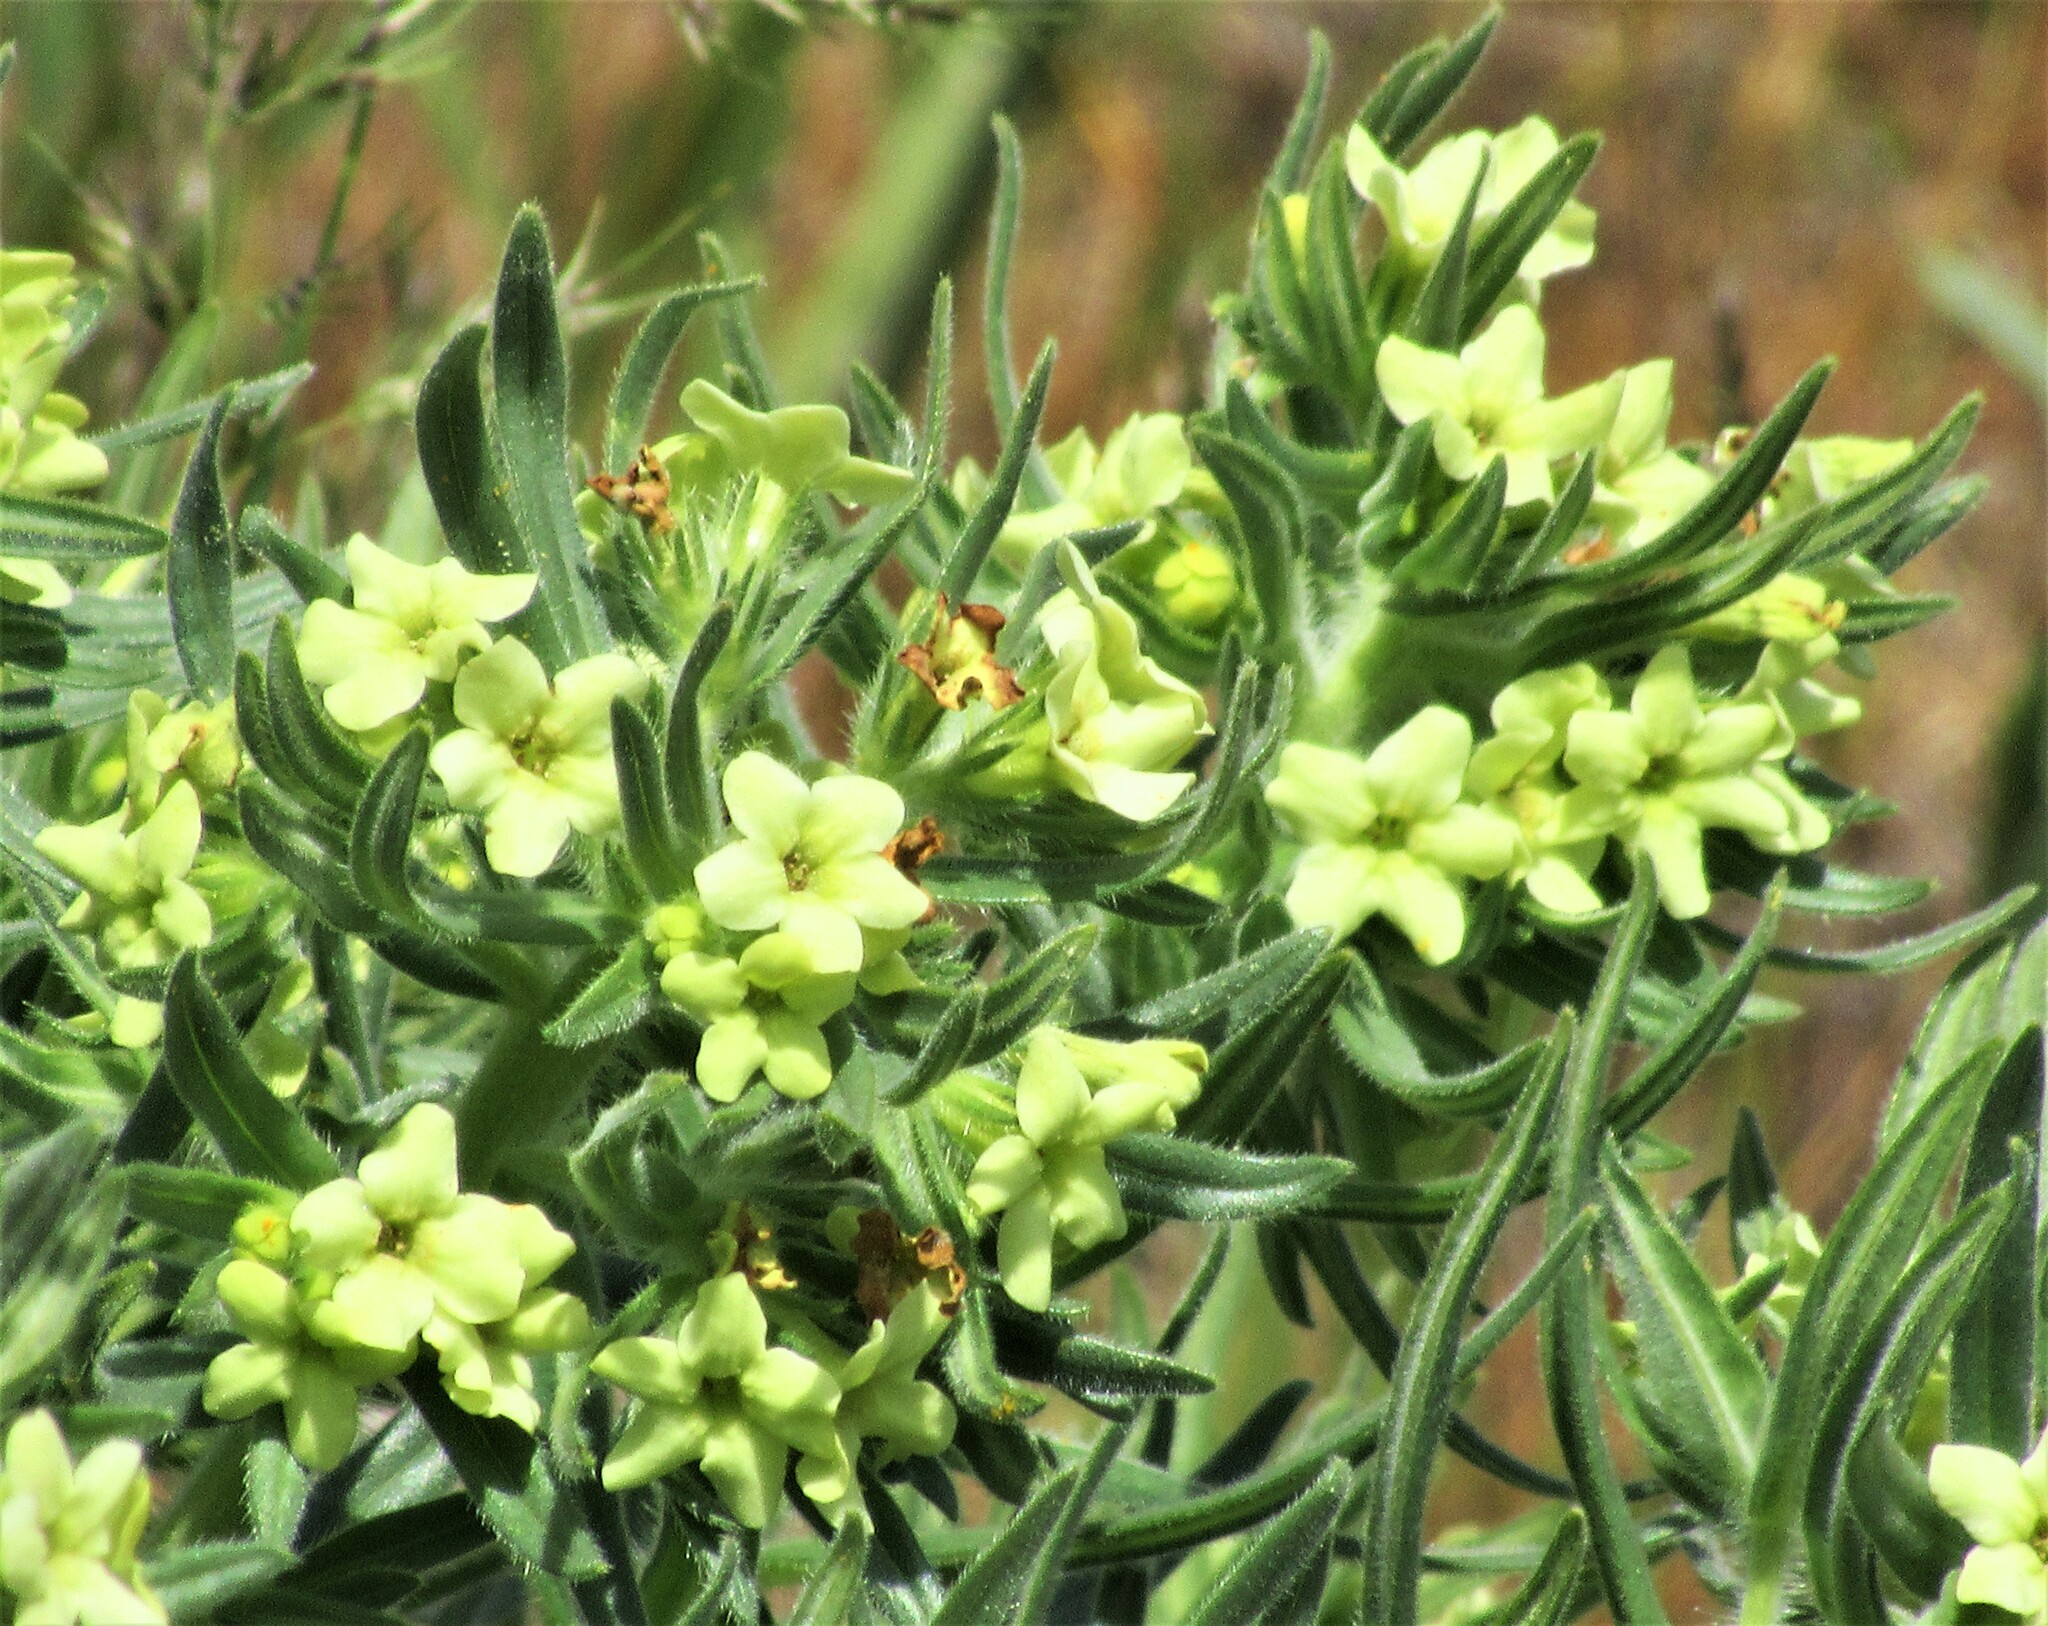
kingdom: Plantae
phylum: Tracheophyta
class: Magnoliopsida
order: Boraginales
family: Boraginaceae
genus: Lithospermum
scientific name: Lithospermum ruderale
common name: Western gromwell
